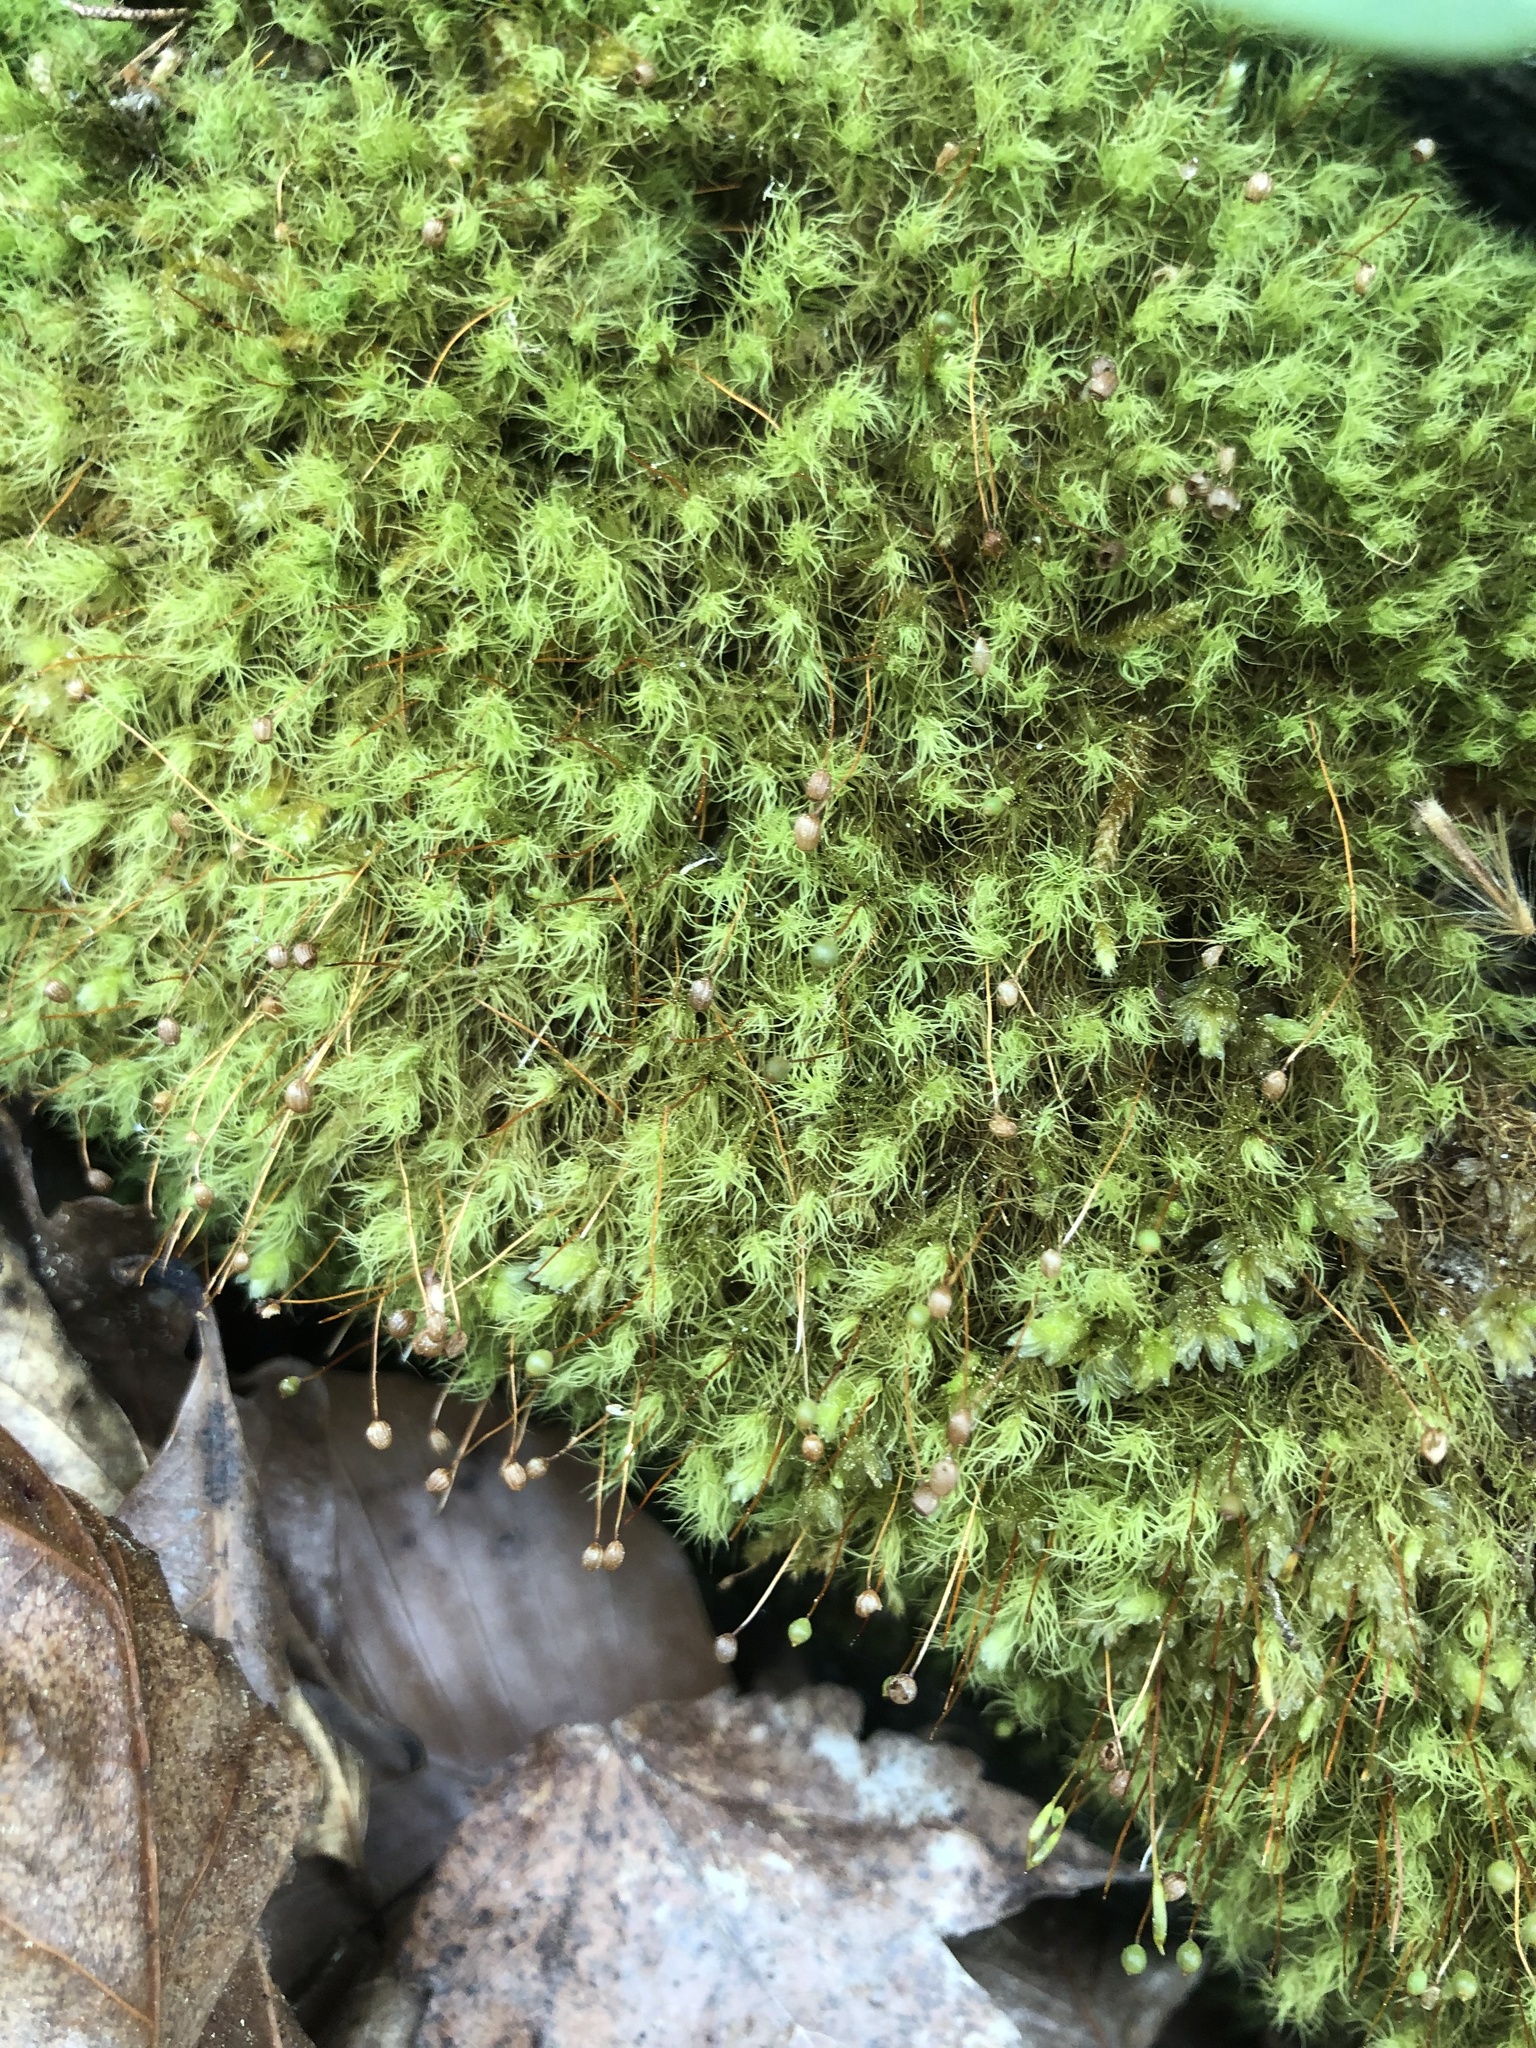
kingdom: Plantae
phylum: Bryophyta
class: Bryopsida
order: Bartramiales
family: Bartramiaceae
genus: Bartramia
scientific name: Bartramia ithyphylla
